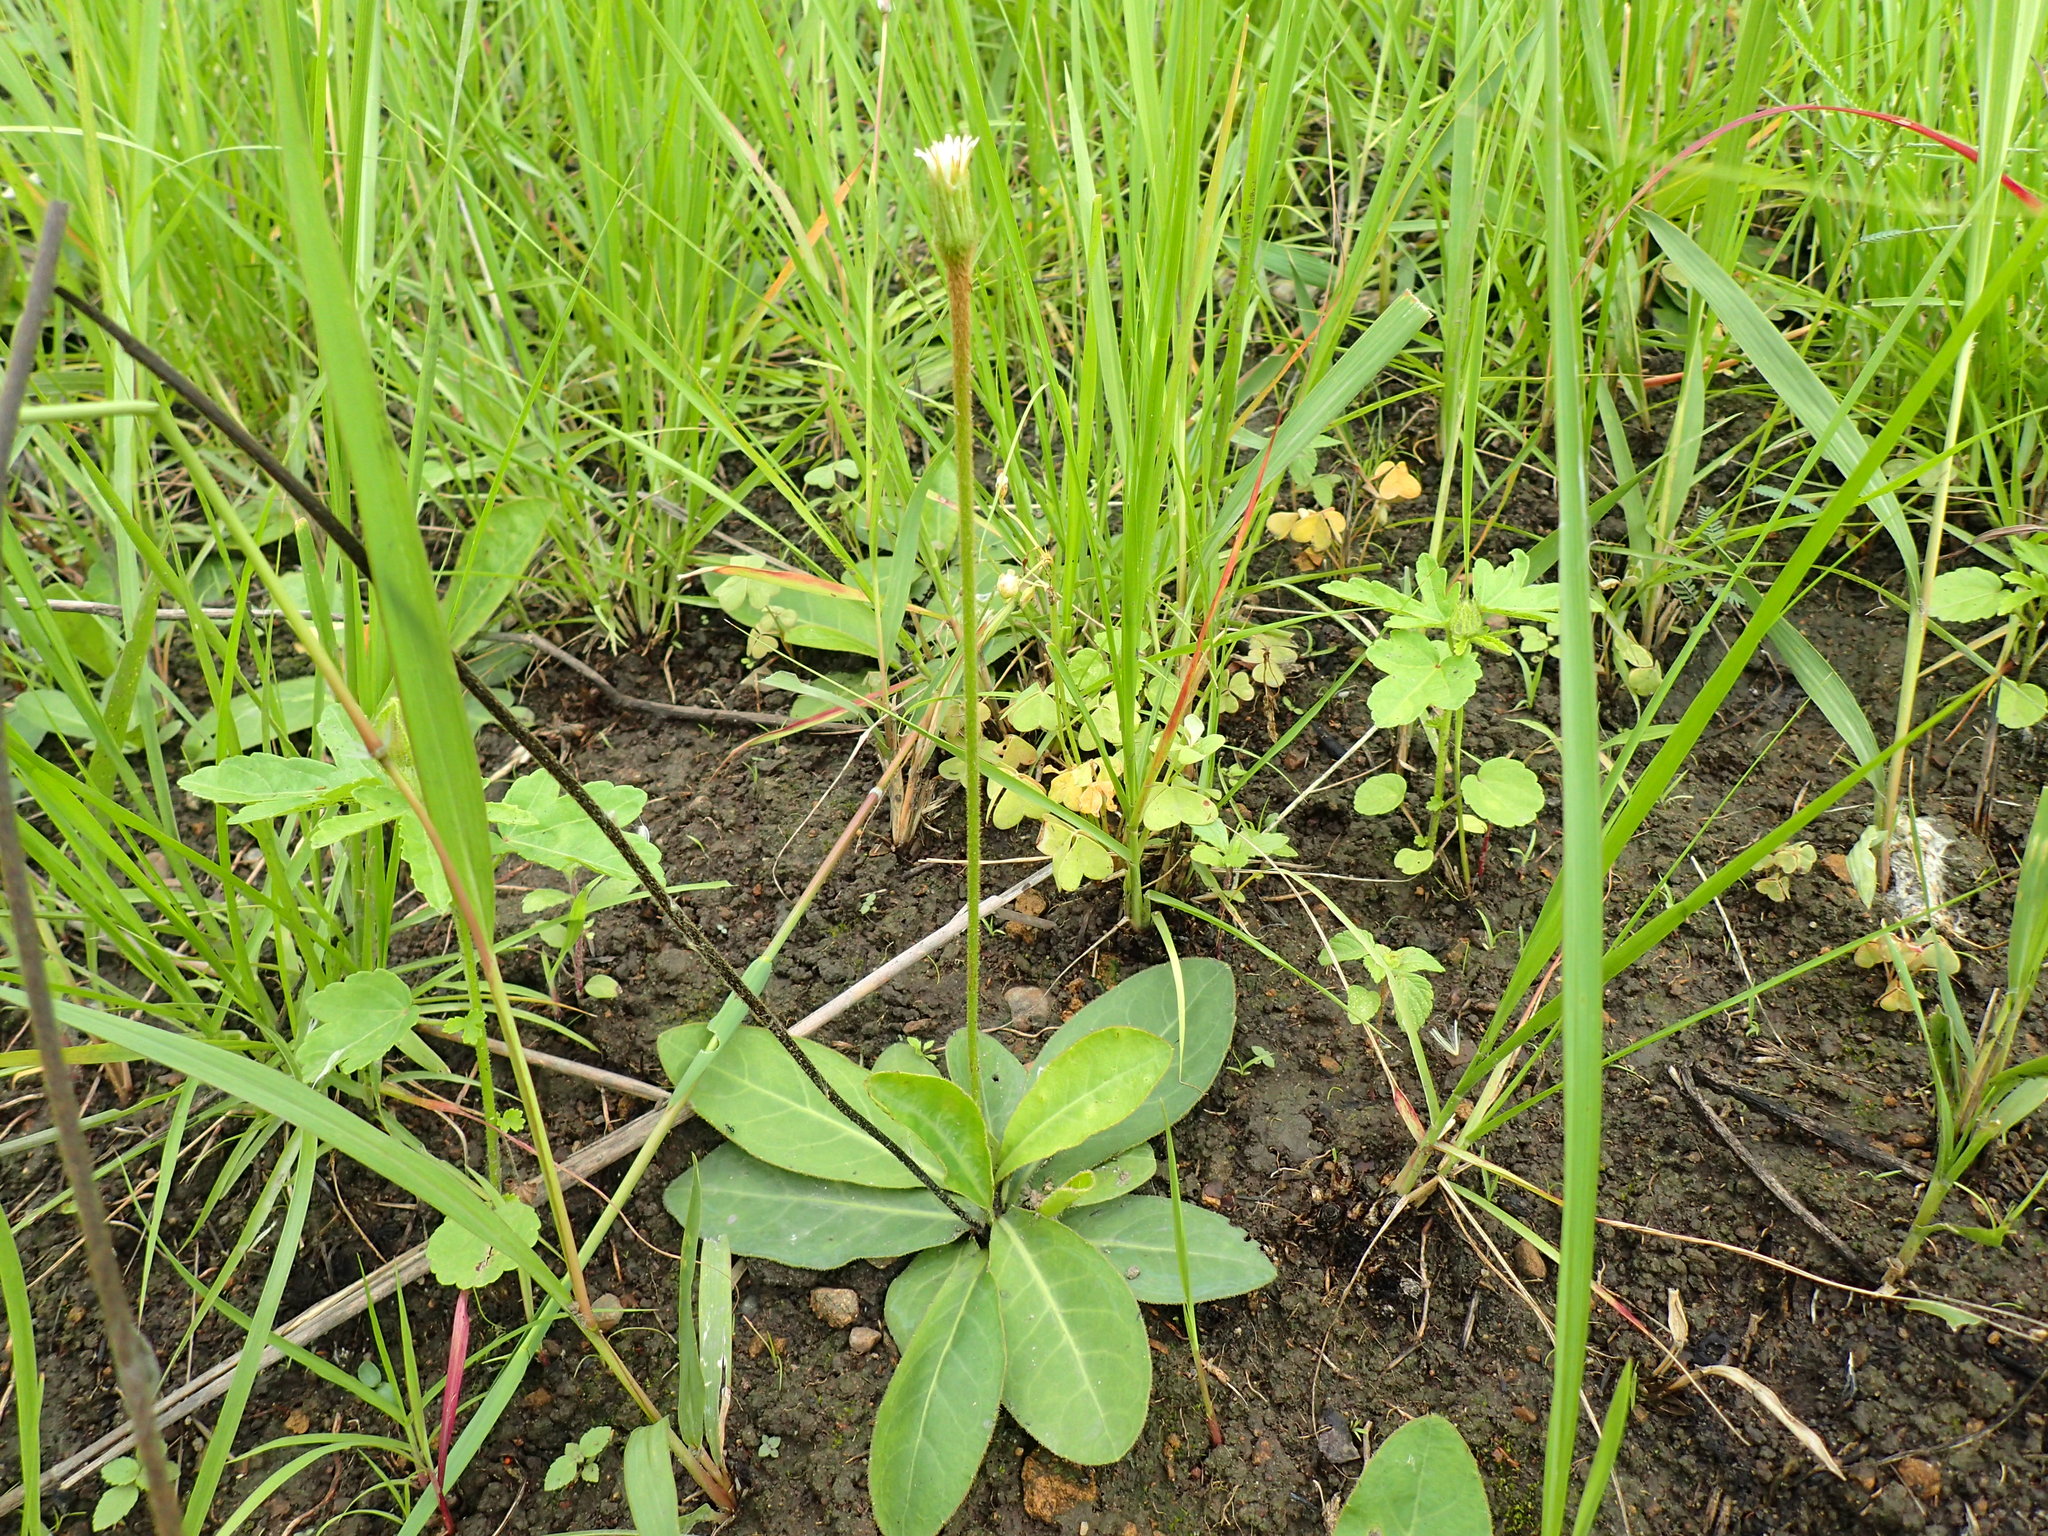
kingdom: Plantae
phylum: Tracheophyta
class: Magnoliopsida
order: Asterales
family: Asteraceae
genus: Piloselloides
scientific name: Piloselloides hirsuta
